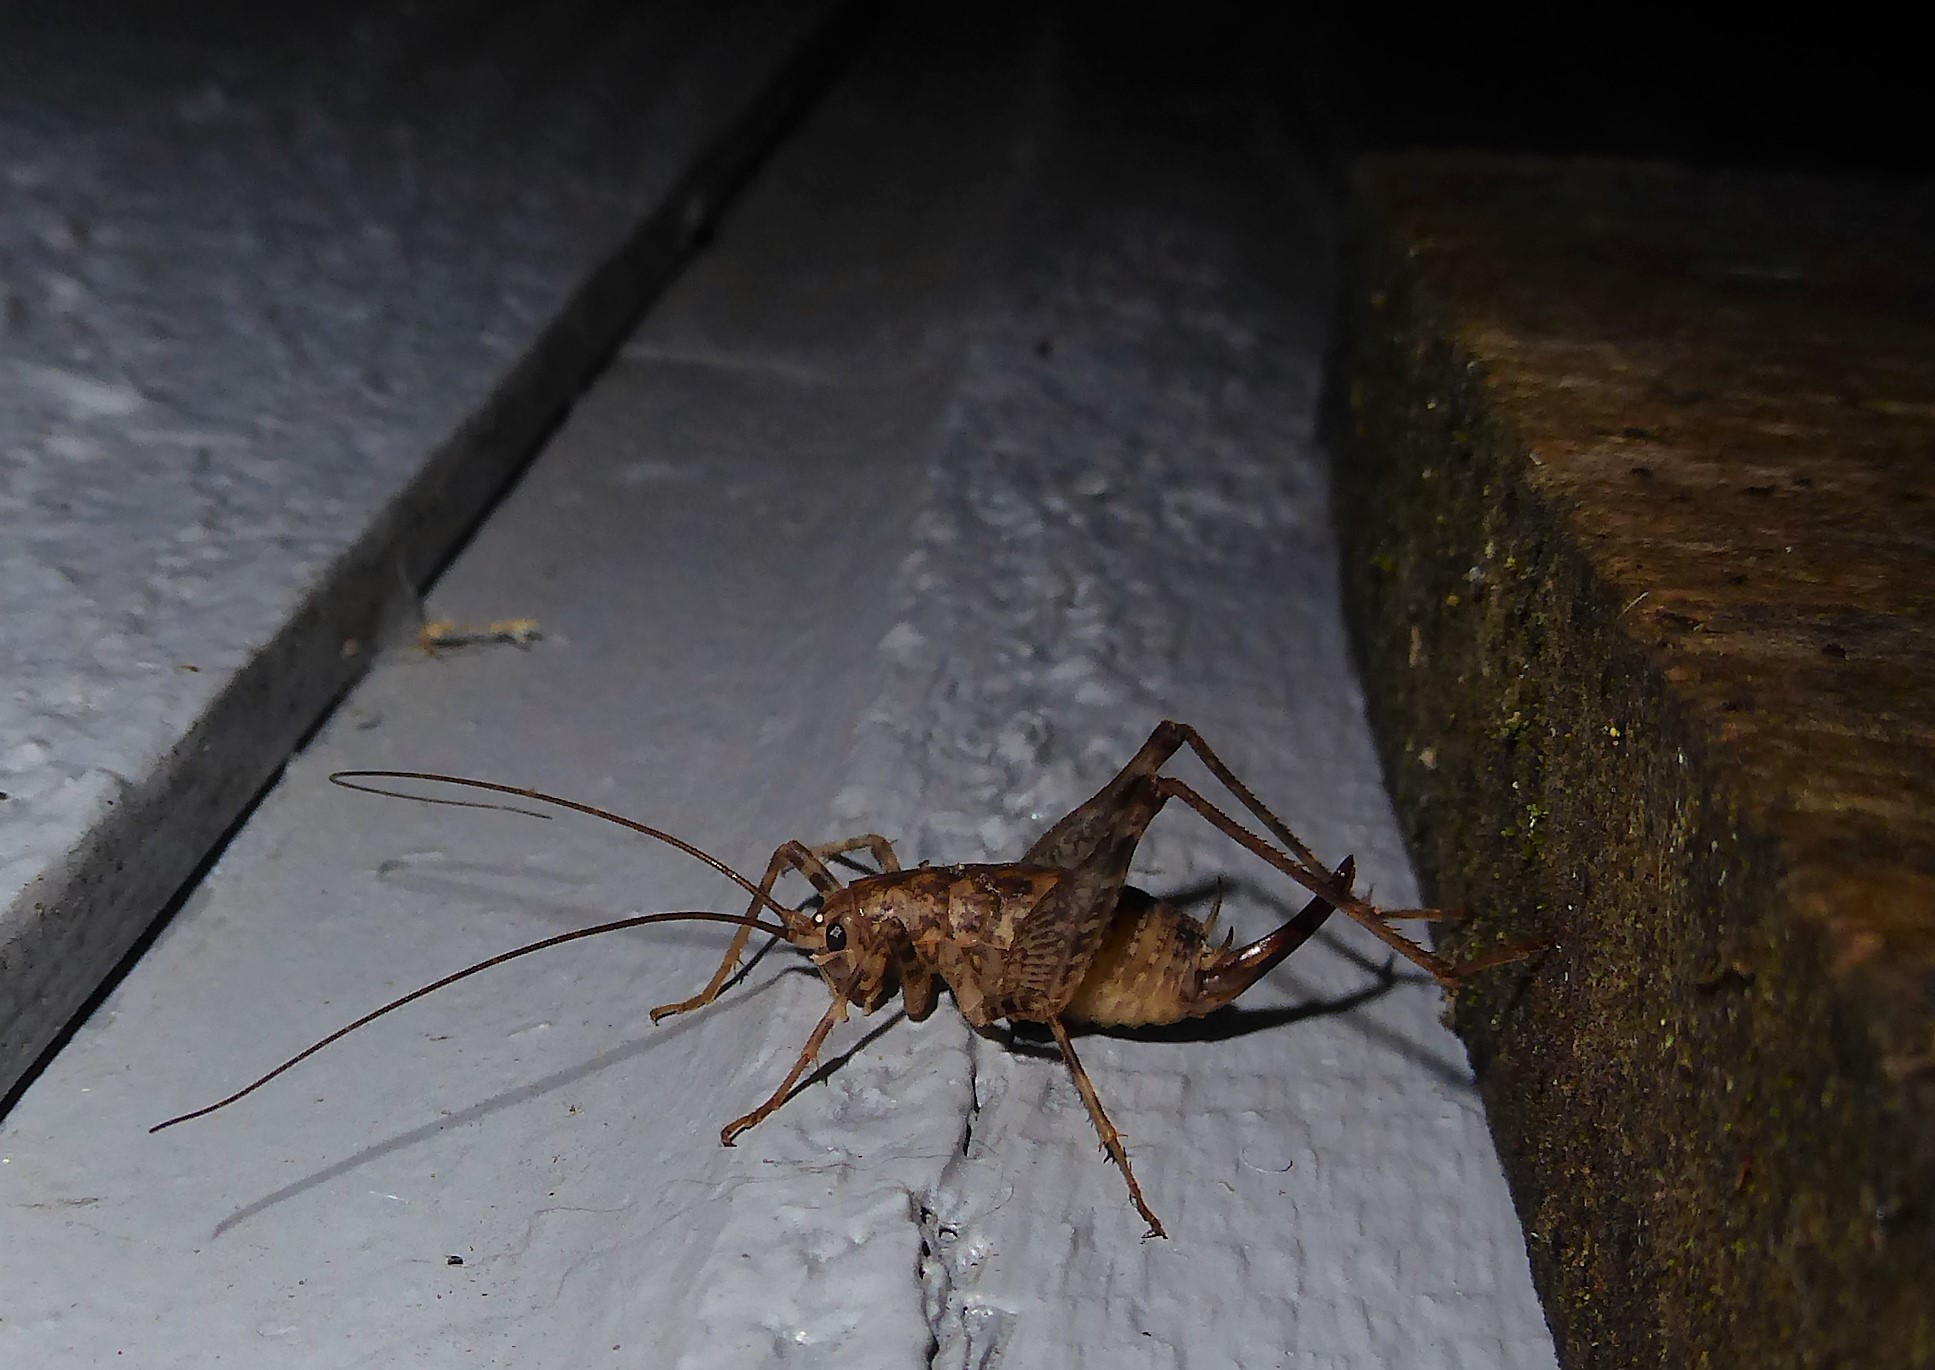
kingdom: Animalia
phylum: Arthropoda
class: Insecta
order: Orthoptera
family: Rhaphidophoridae
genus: Pleioplectron
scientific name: Pleioplectron simplex
